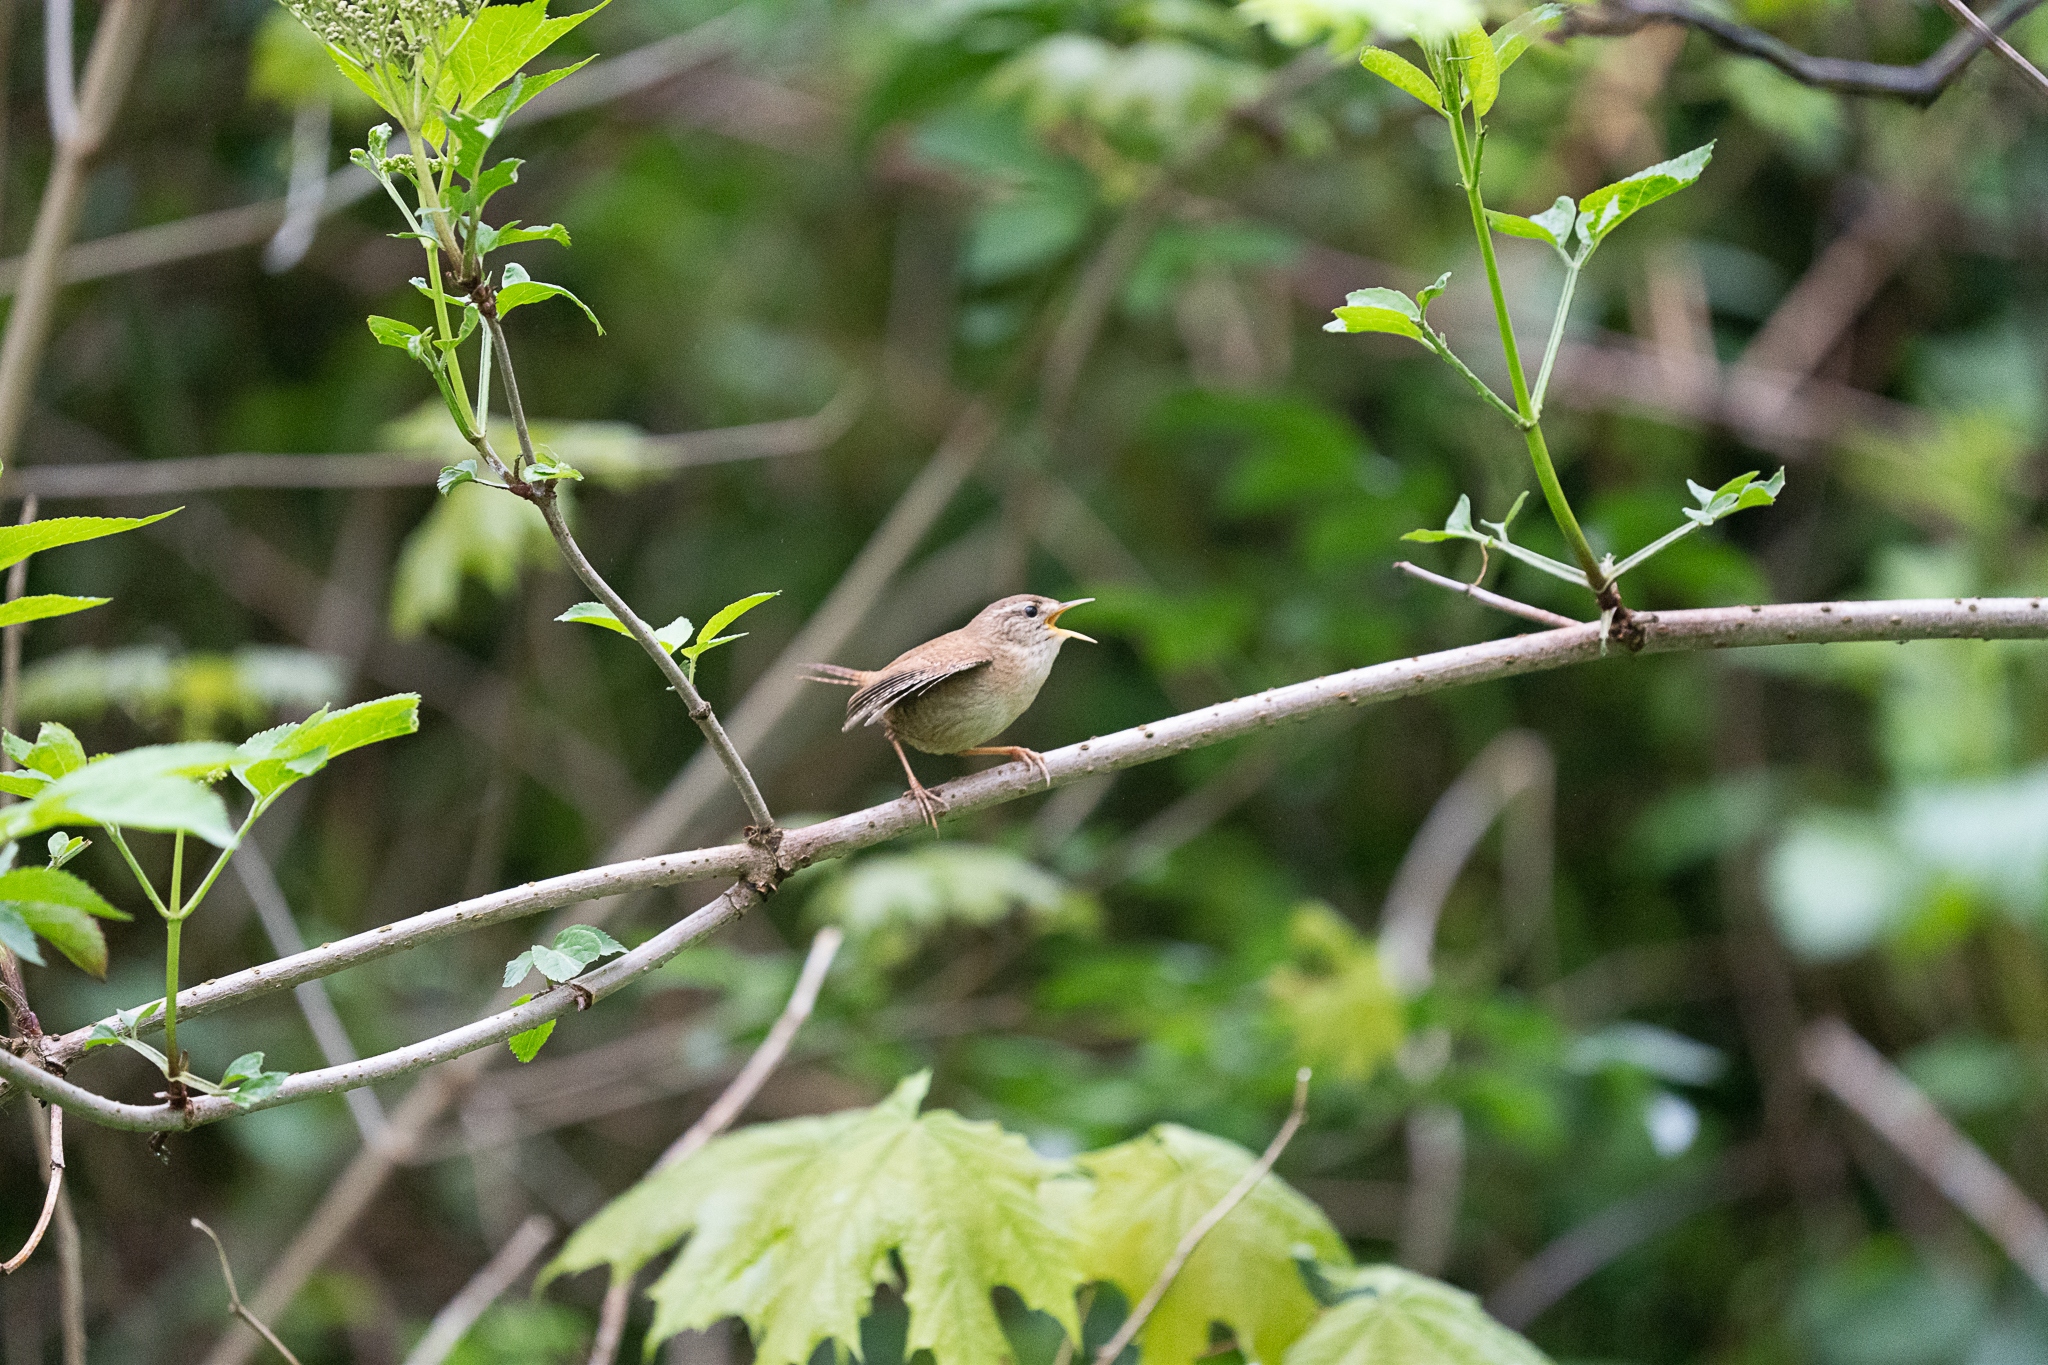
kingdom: Animalia
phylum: Chordata
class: Aves
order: Passeriformes
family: Troglodytidae
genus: Troglodytes
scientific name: Troglodytes troglodytes
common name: Eurasian wren
